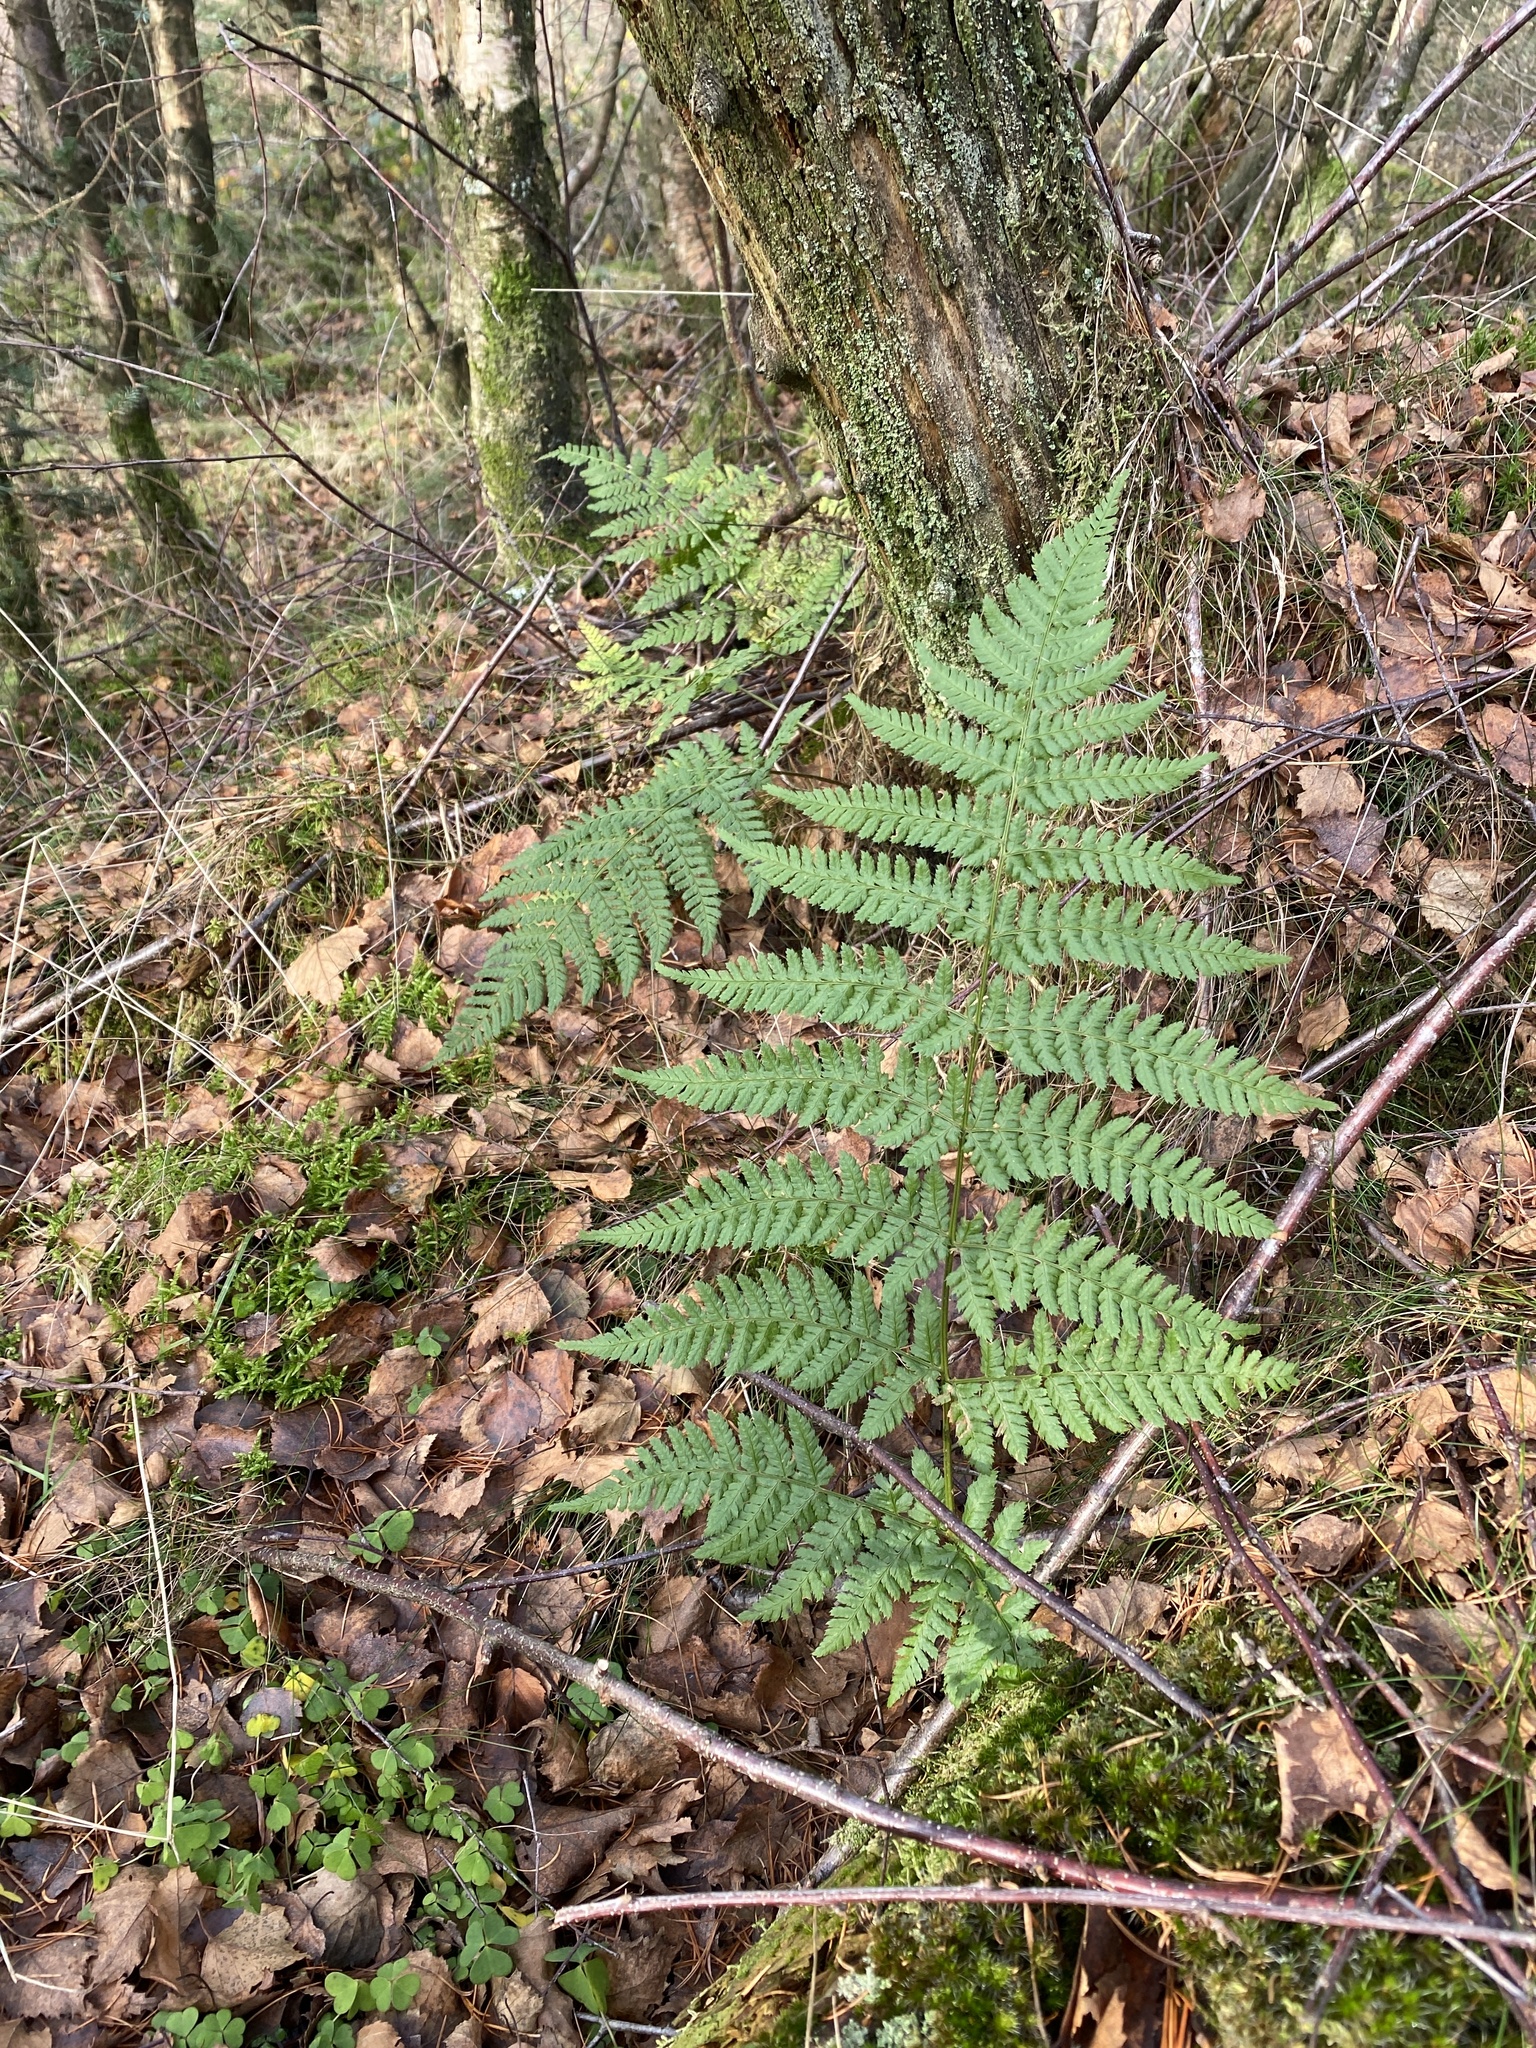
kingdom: Plantae
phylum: Tracheophyta
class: Polypodiopsida
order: Polypodiales
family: Dryopteridaceae
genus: Dryopteris
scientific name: Dryopteris dilatata
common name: Broad buckler-fern
